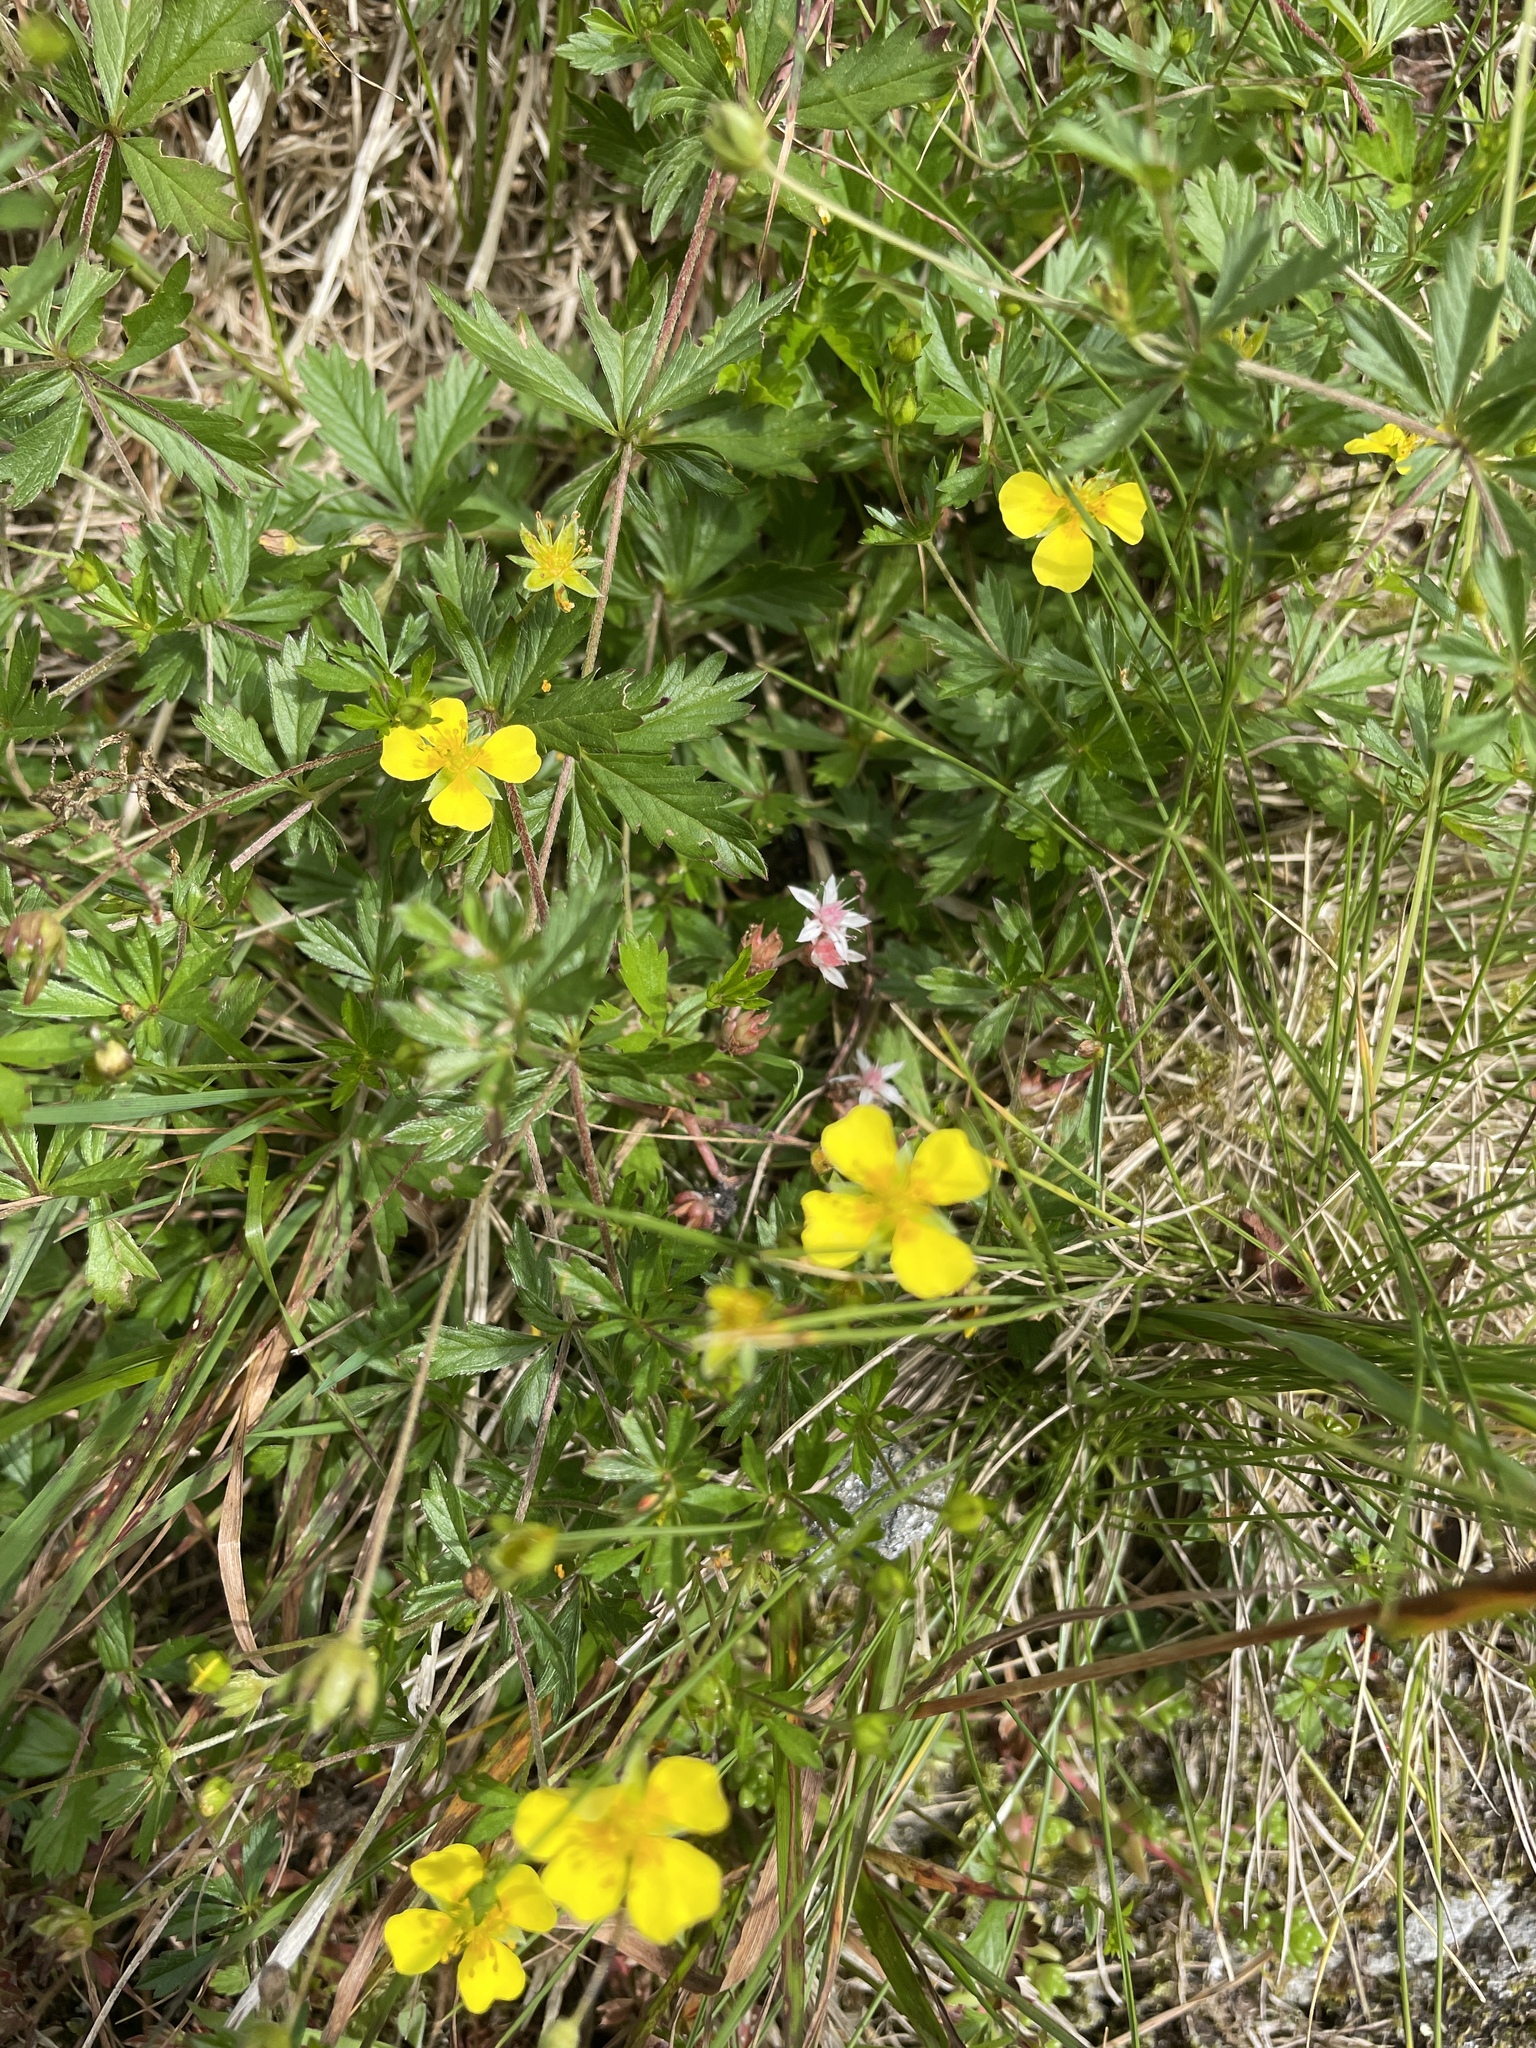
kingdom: Plantae
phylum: Tracheophyta
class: Magnoliopsida
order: Rosales
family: Rosaceae
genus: Potentilla
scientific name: Potentilla erecta
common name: Tormentil
